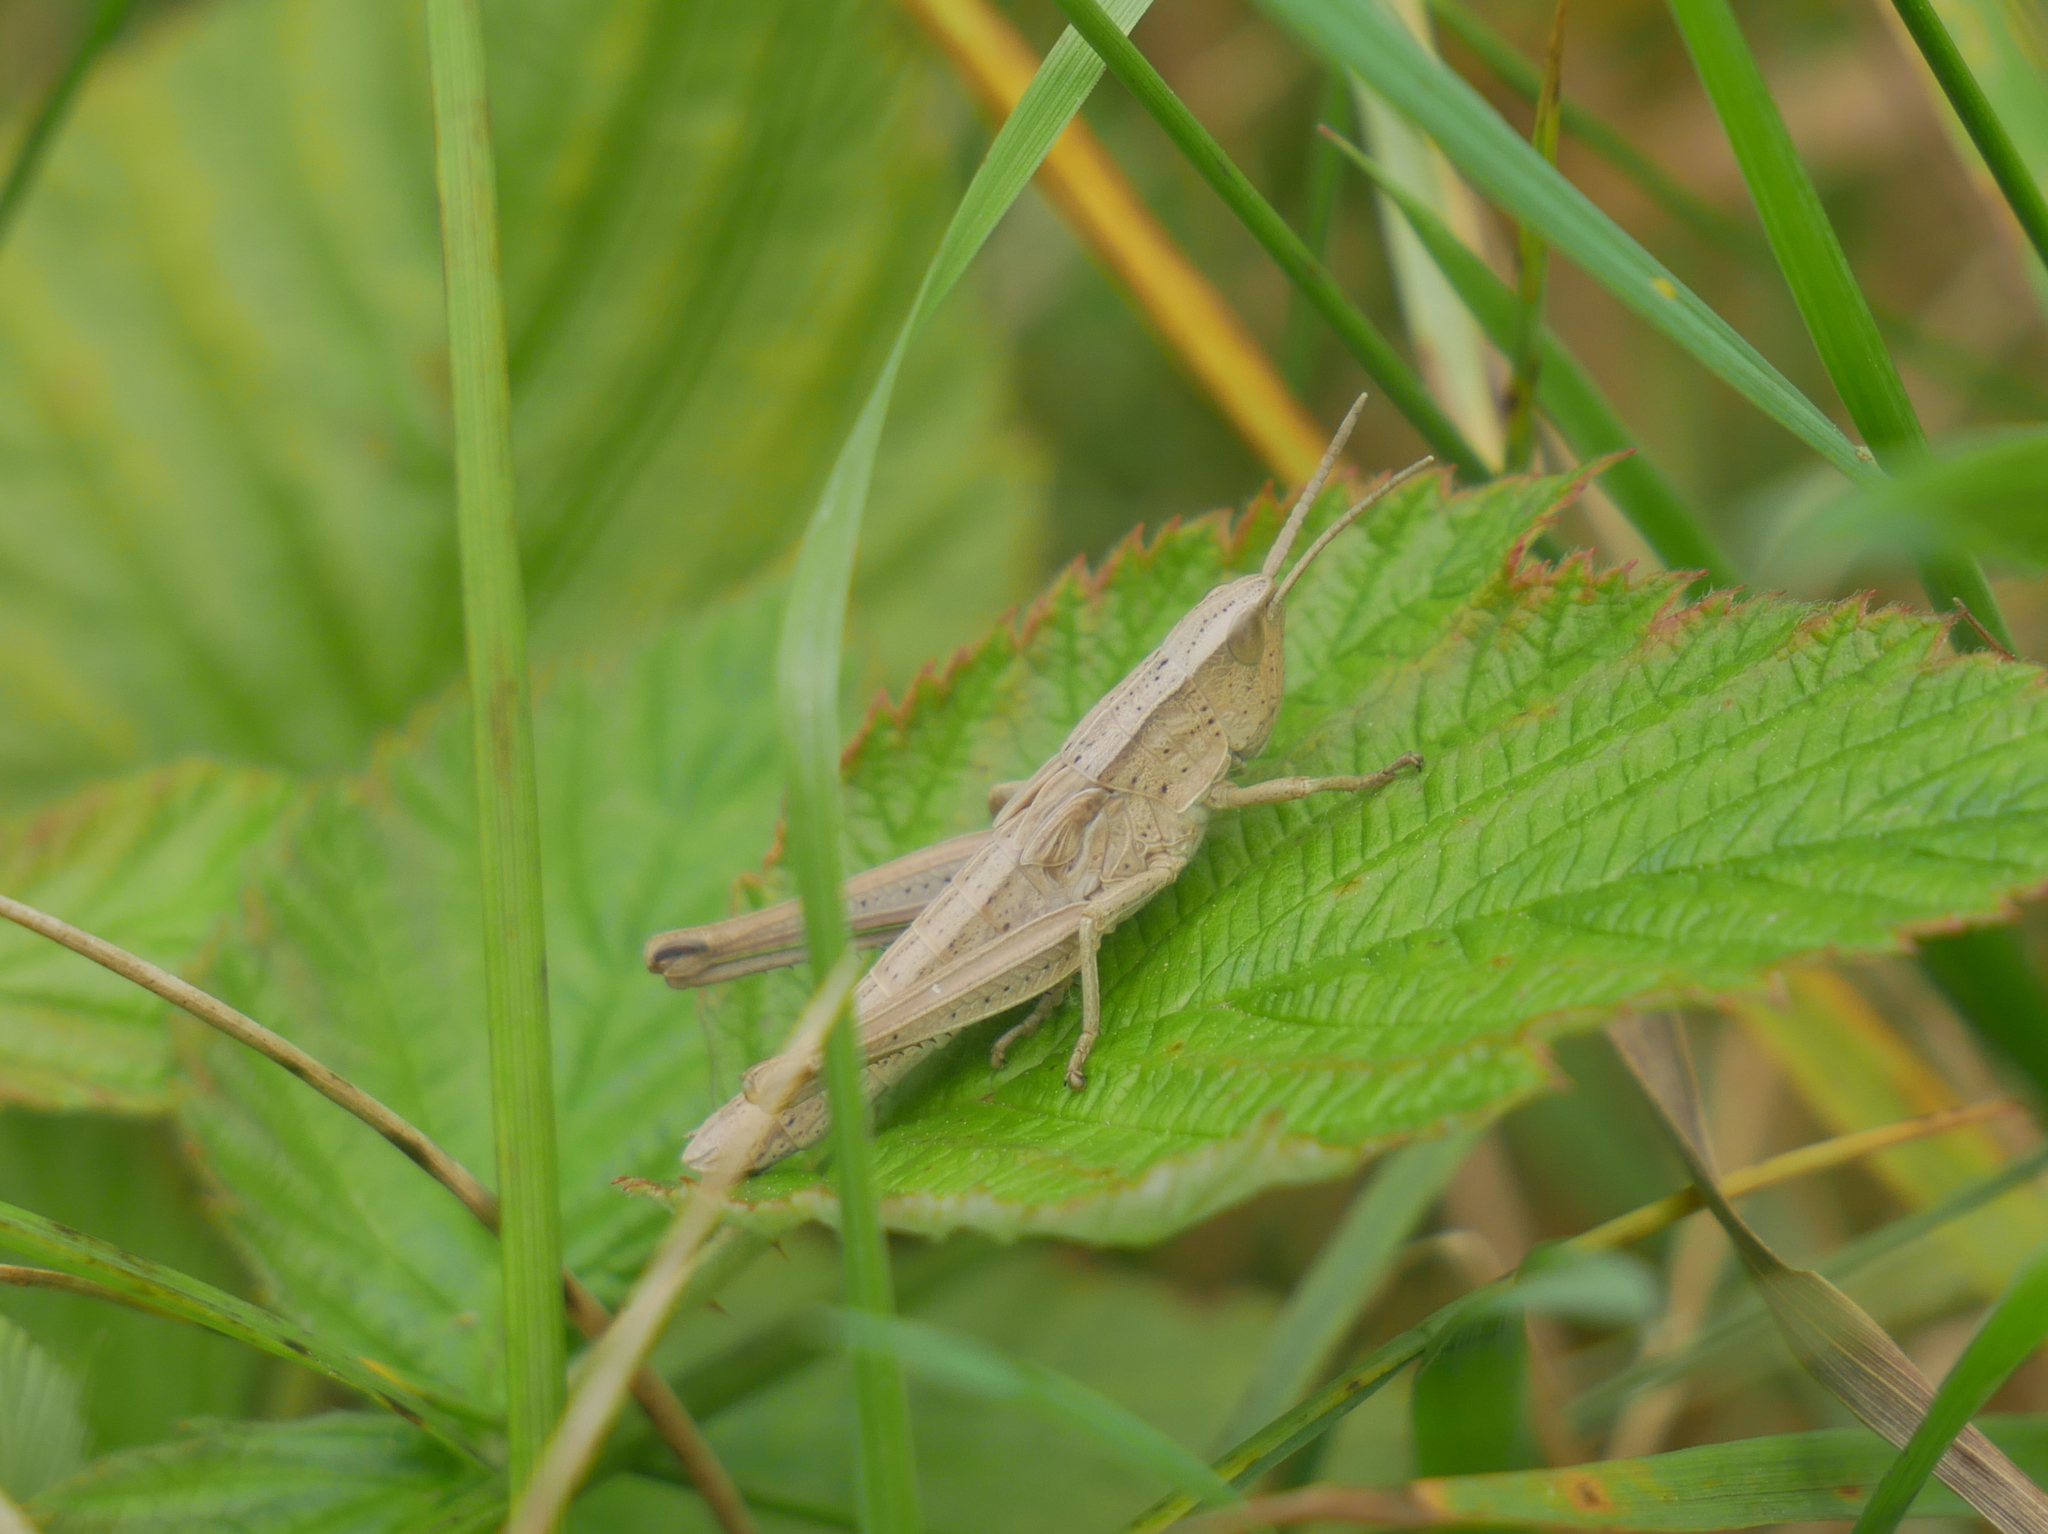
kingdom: Animalia
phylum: Arthropoda
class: Insecta
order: Orthoptera
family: Acrididae
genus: Chrysochraon
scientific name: Chrysochraon dispar
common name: Large gold grasshopper
